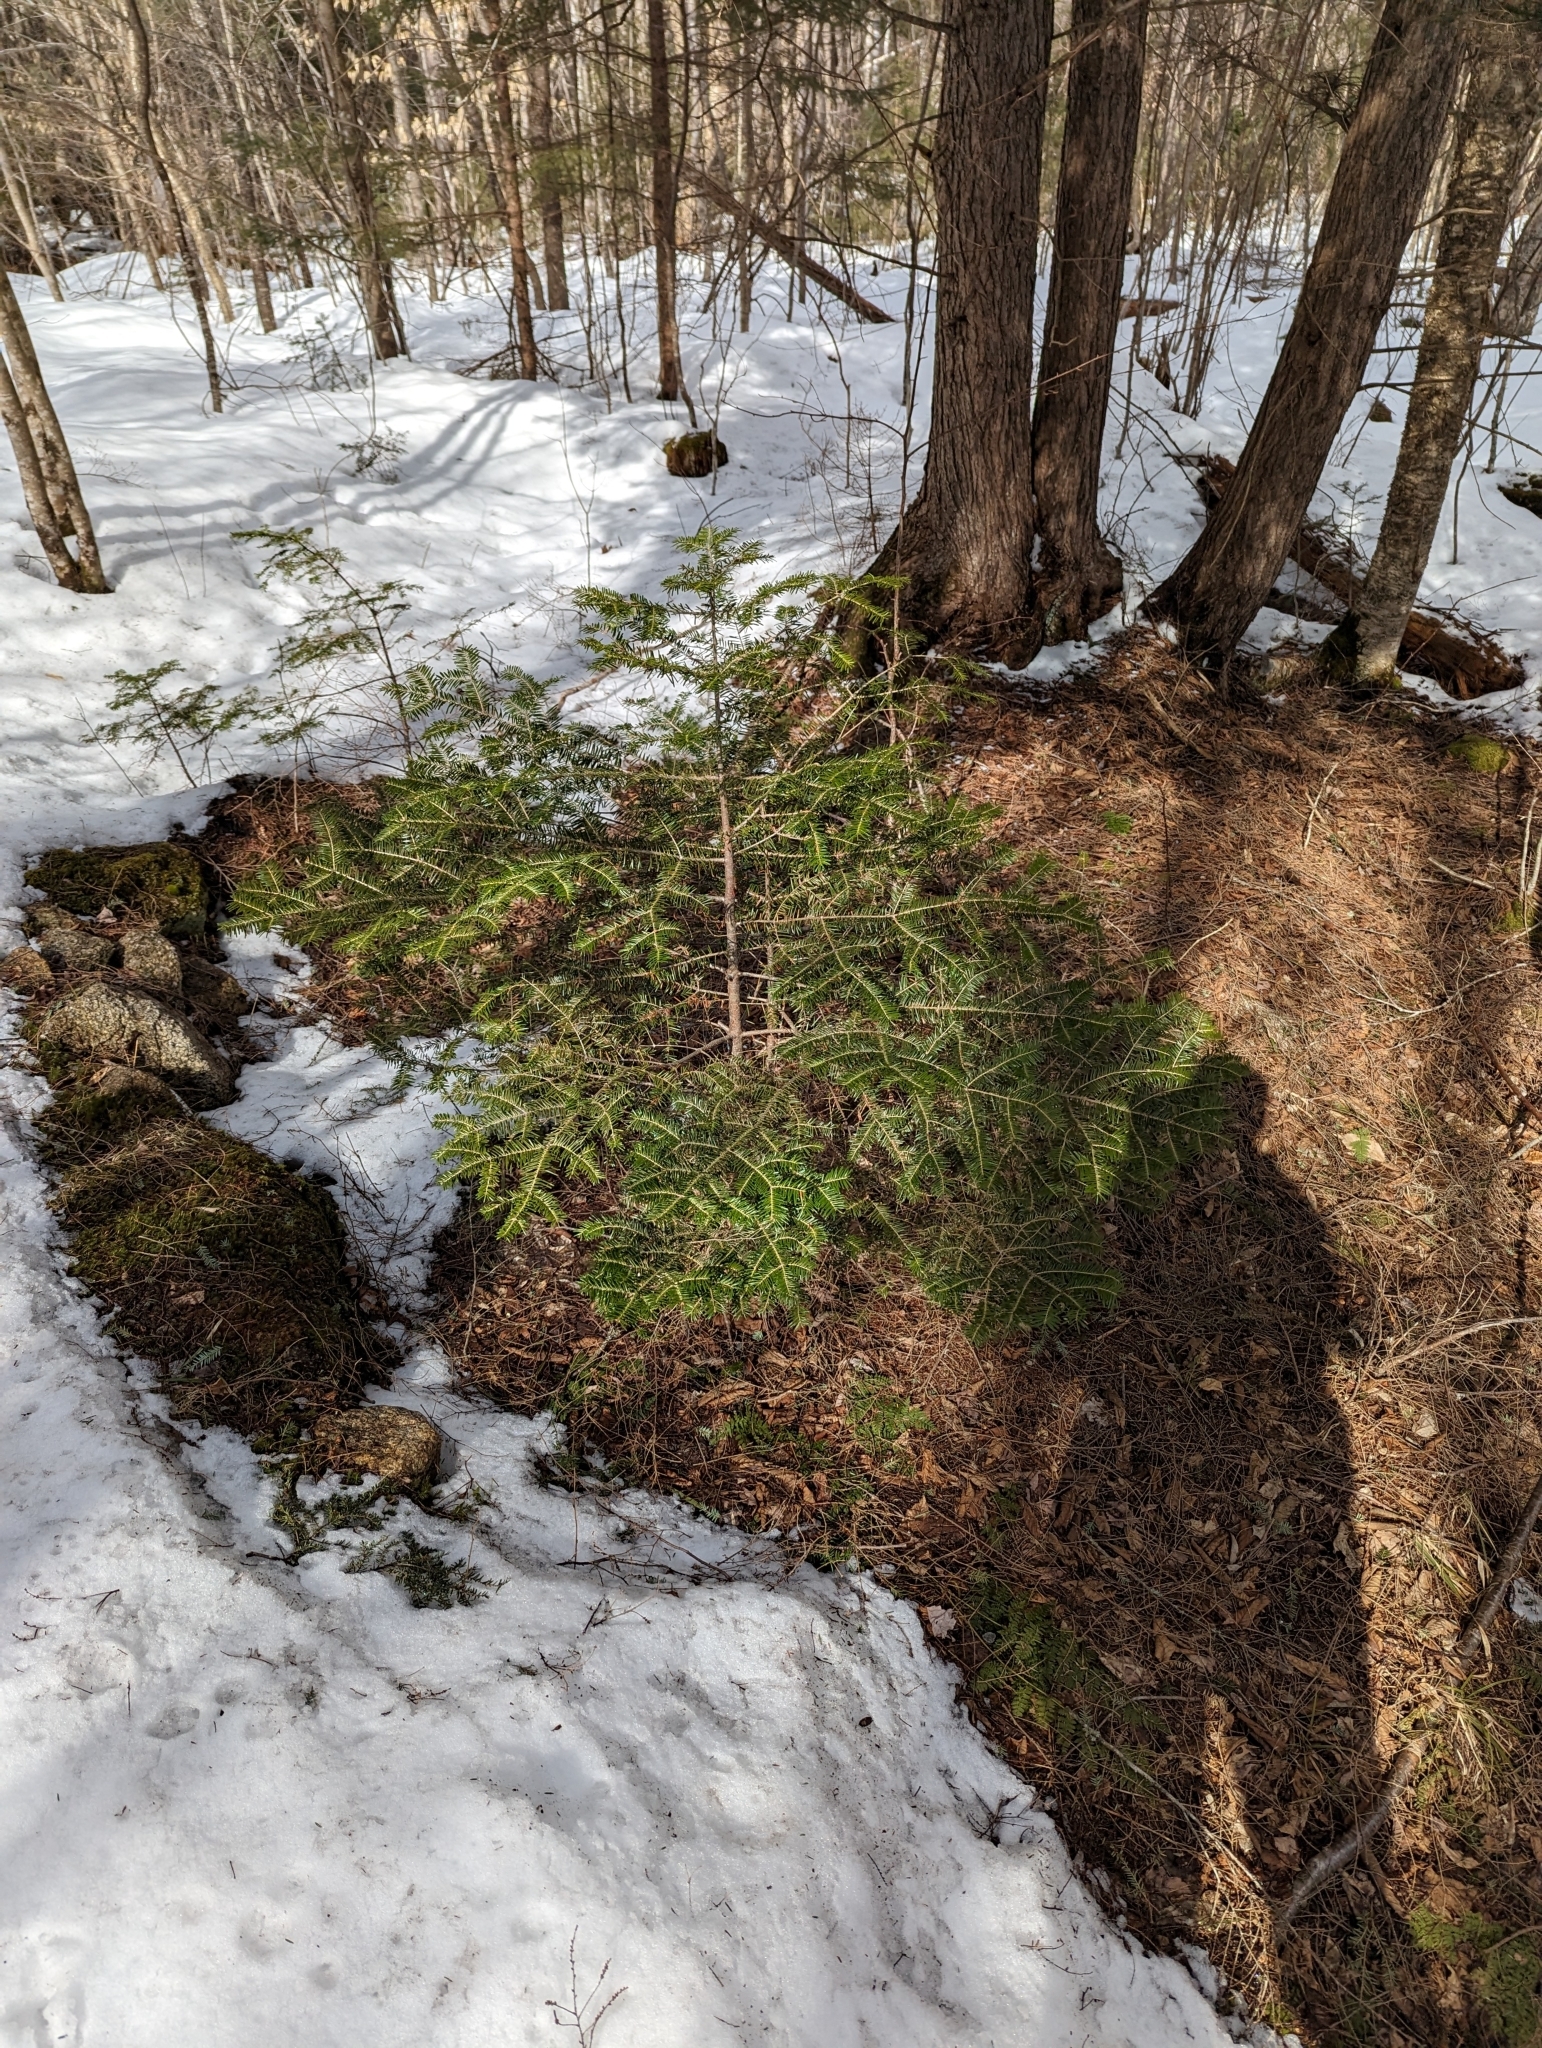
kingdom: Plantae
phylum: Tracheophyta
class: Pinopsida
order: Pinales
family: Pinaceae
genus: Abies
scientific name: Abies balsamea
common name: Balsam fir
